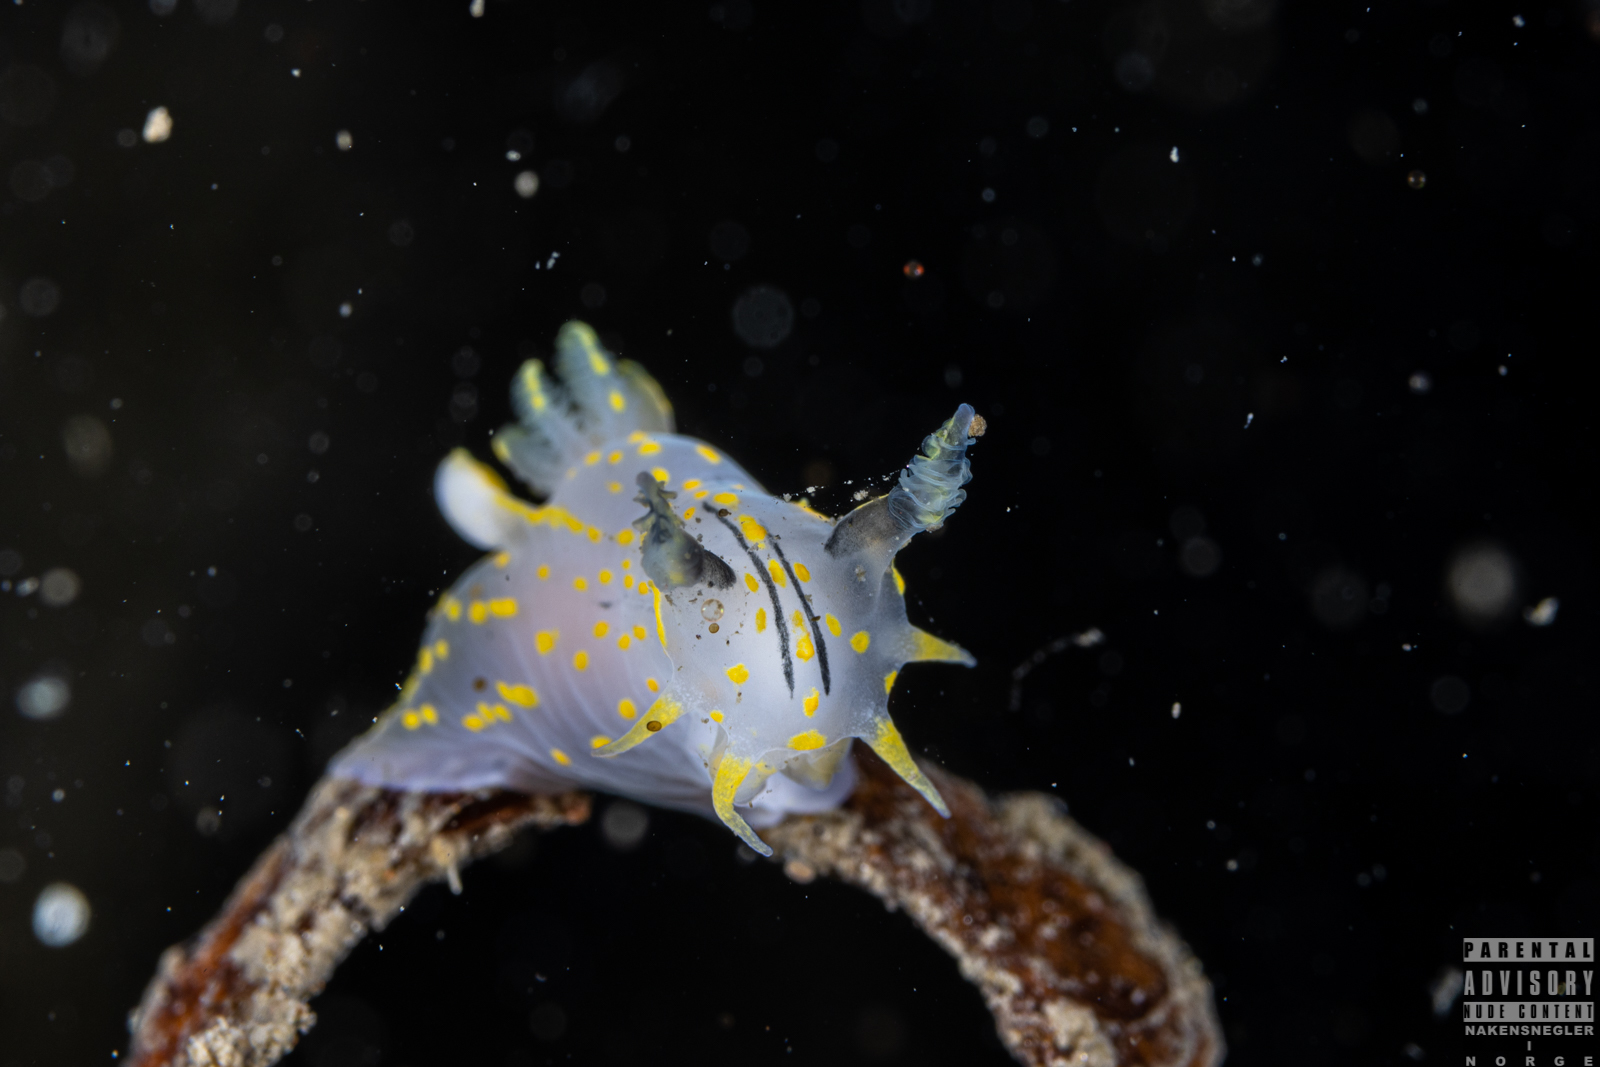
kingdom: Animalia
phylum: Mollusca
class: Gastropoda
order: Nudibranchia
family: Polyceridae
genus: Polycera
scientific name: Polycera quadrilineata
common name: Four-striped polycera
